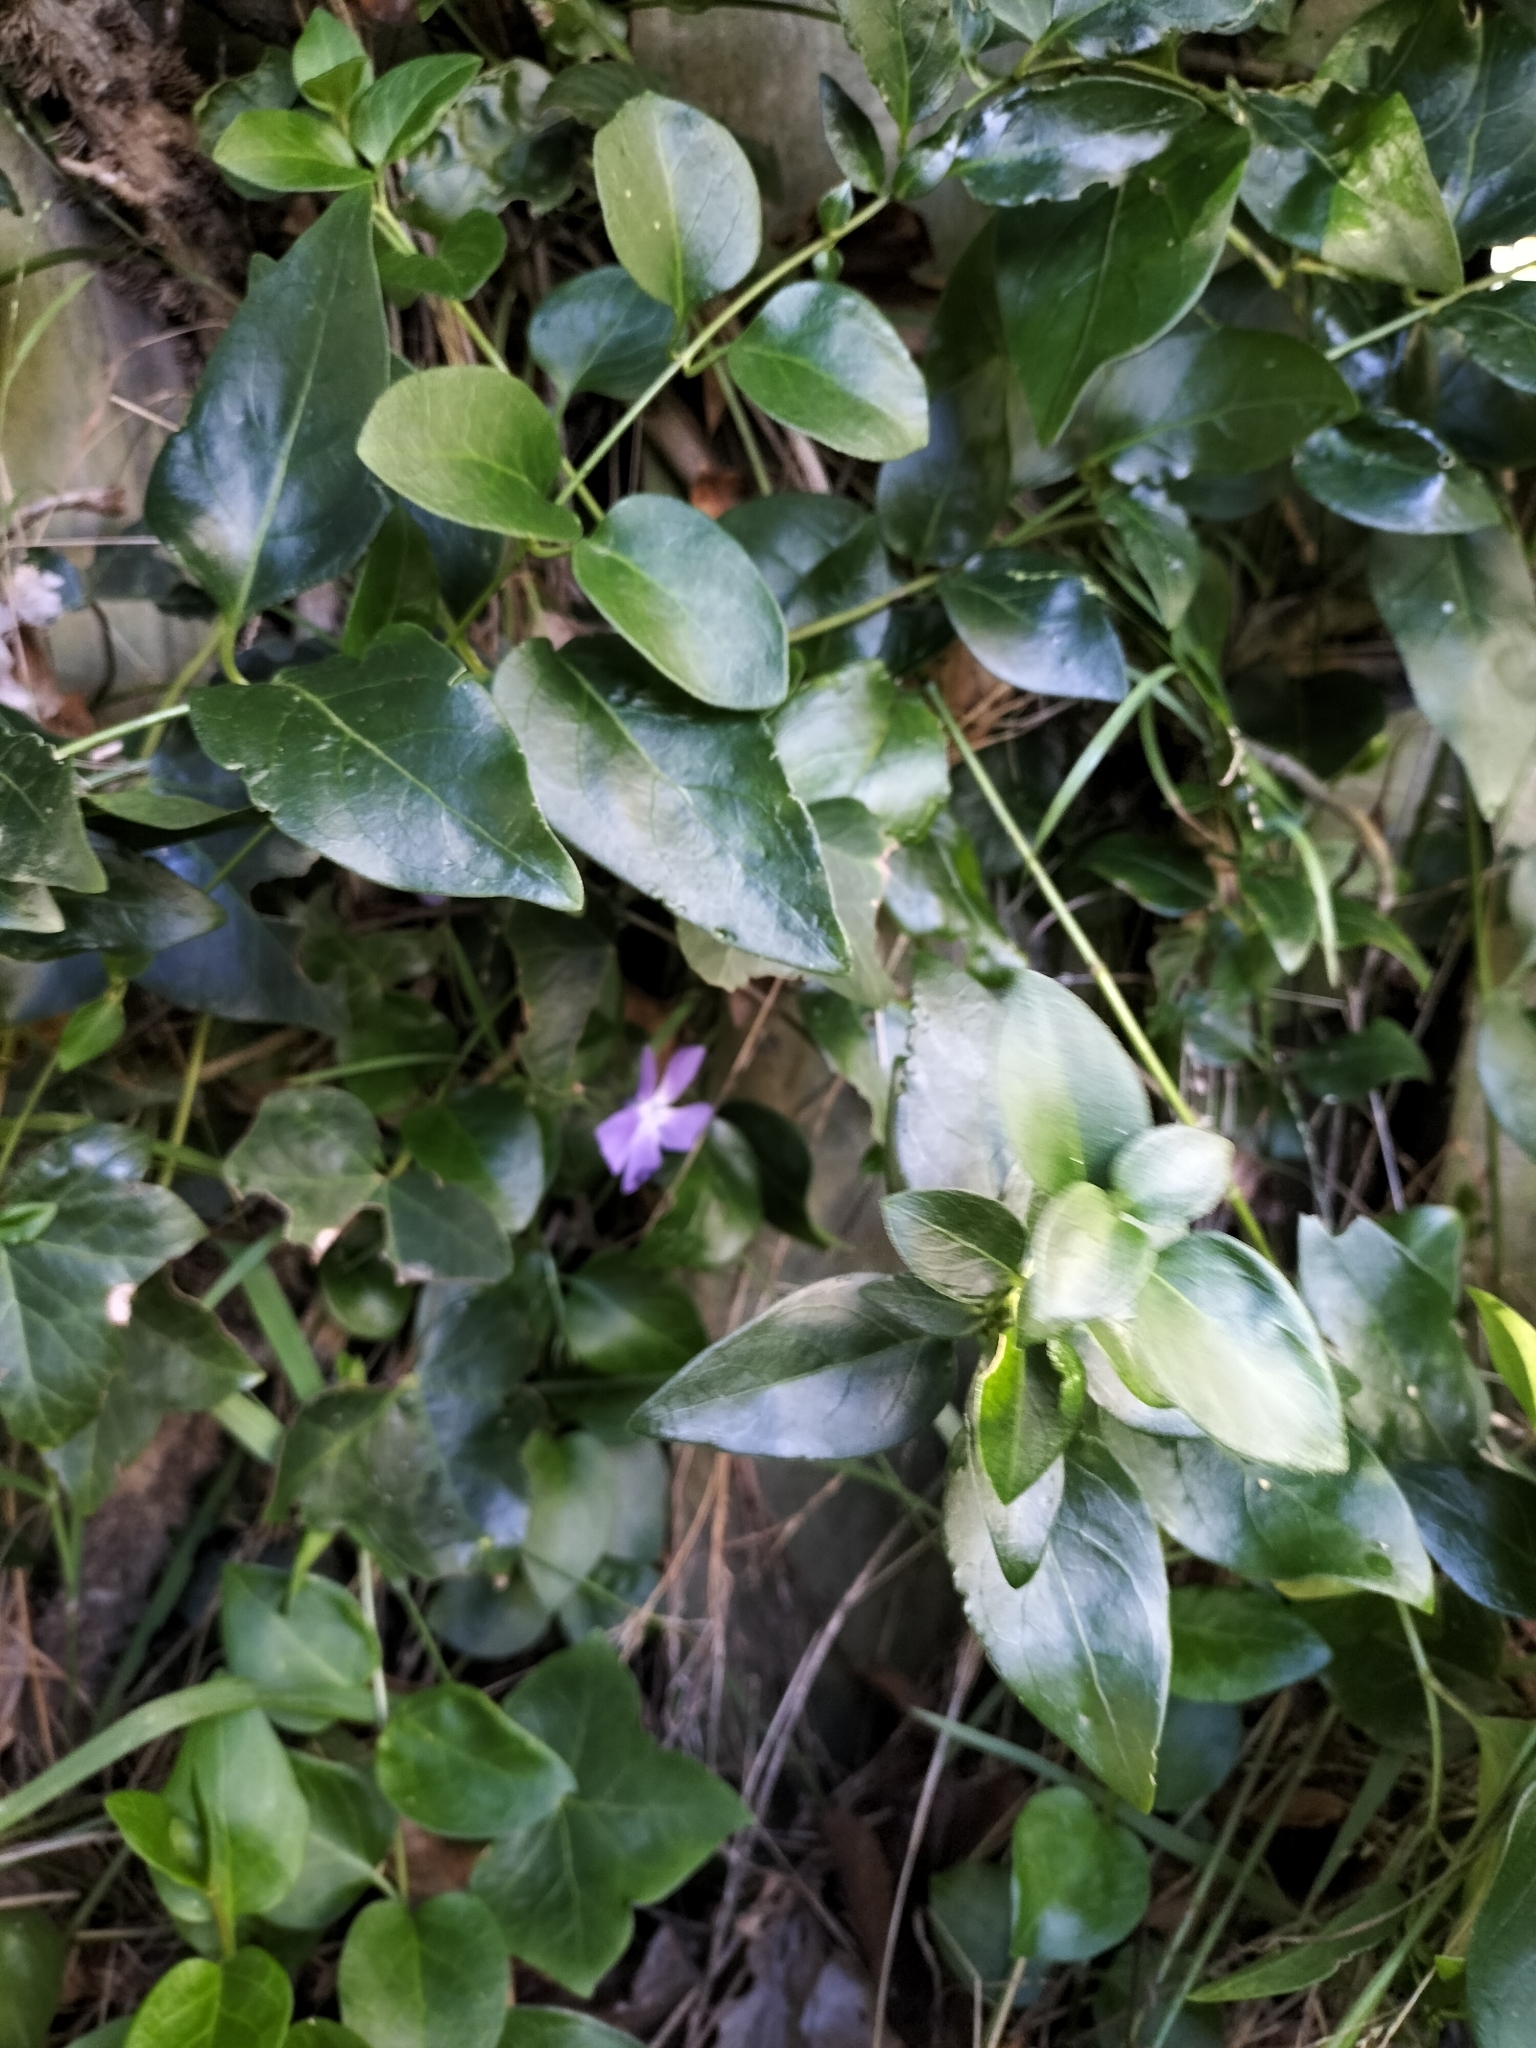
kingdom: Plantae
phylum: Tracheophyta
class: Magnoliopsida
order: Gentianales
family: Apocynaceae
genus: Vinca
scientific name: Vinca major
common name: Greater periwinkle
